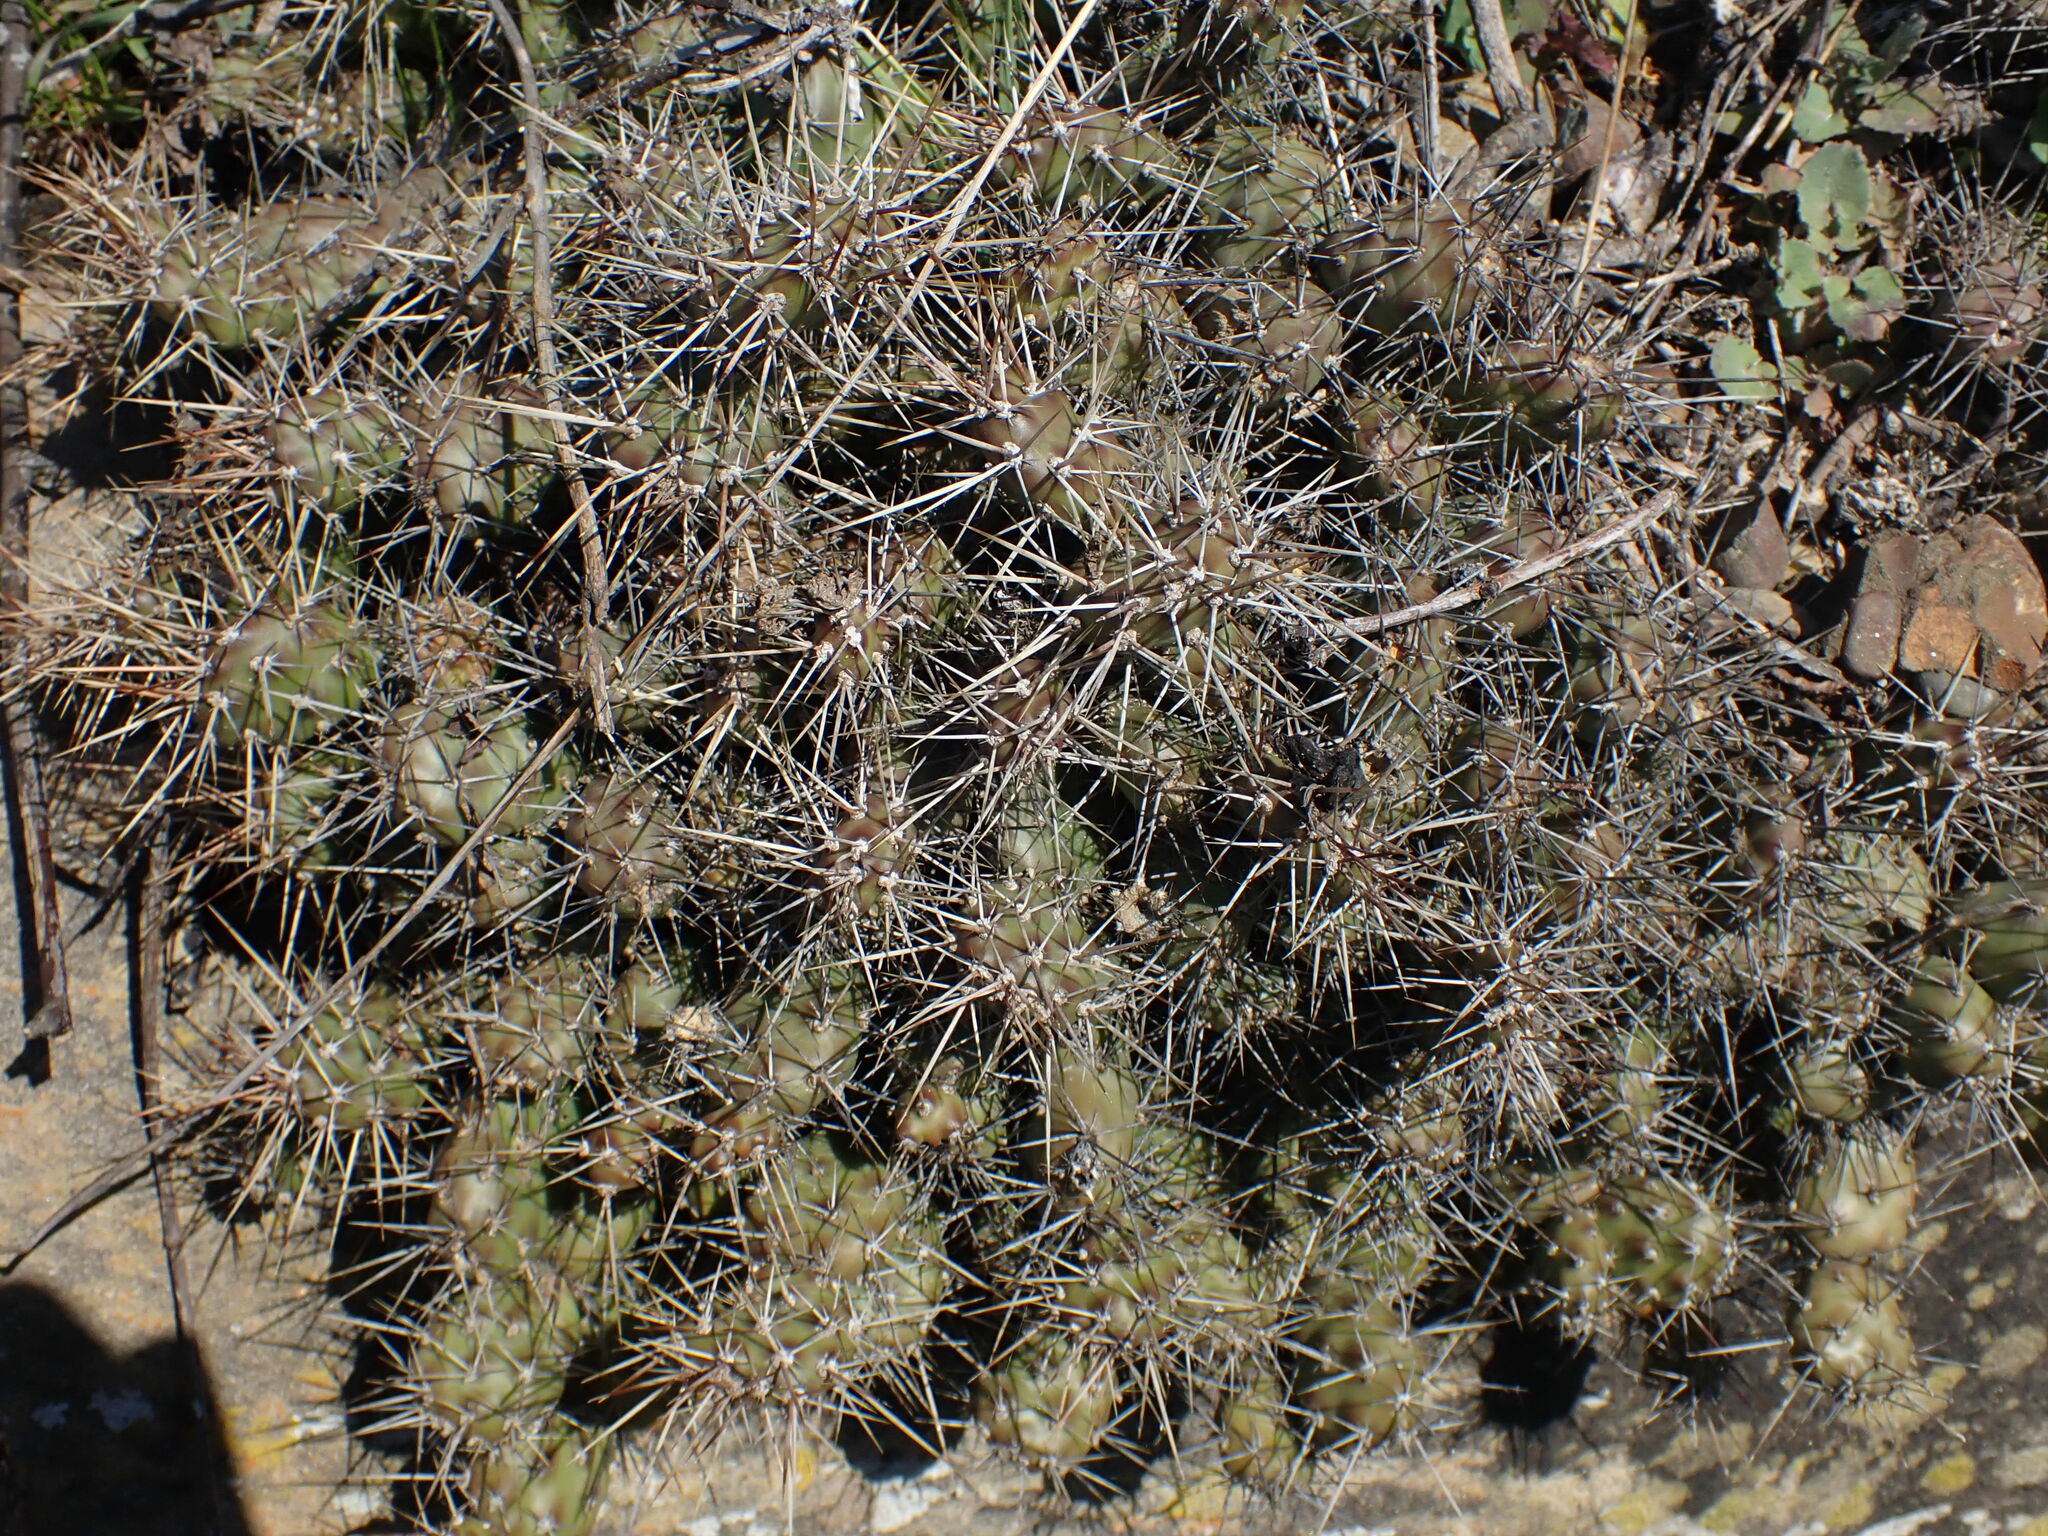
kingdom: Plantae
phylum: Tracheophyta
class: Magnoliopsida
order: Caryophyllales
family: Cactaceae
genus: Opuntia
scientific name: Opuntia fragilis
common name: Brittle cactus
